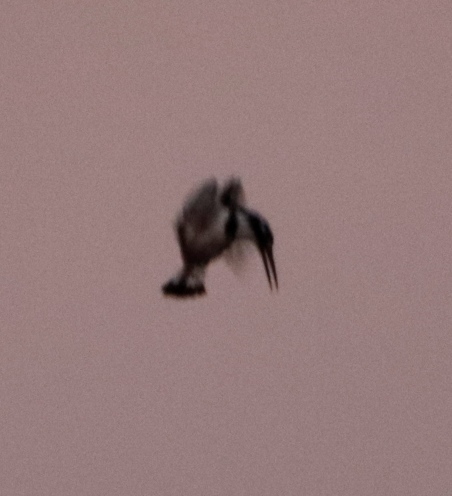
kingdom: Animalia
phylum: Chordata
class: Aves
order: Coraciiformes
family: Alcedinidae
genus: Ceryle
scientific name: Ceryle rudis
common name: Pied kingfisher
